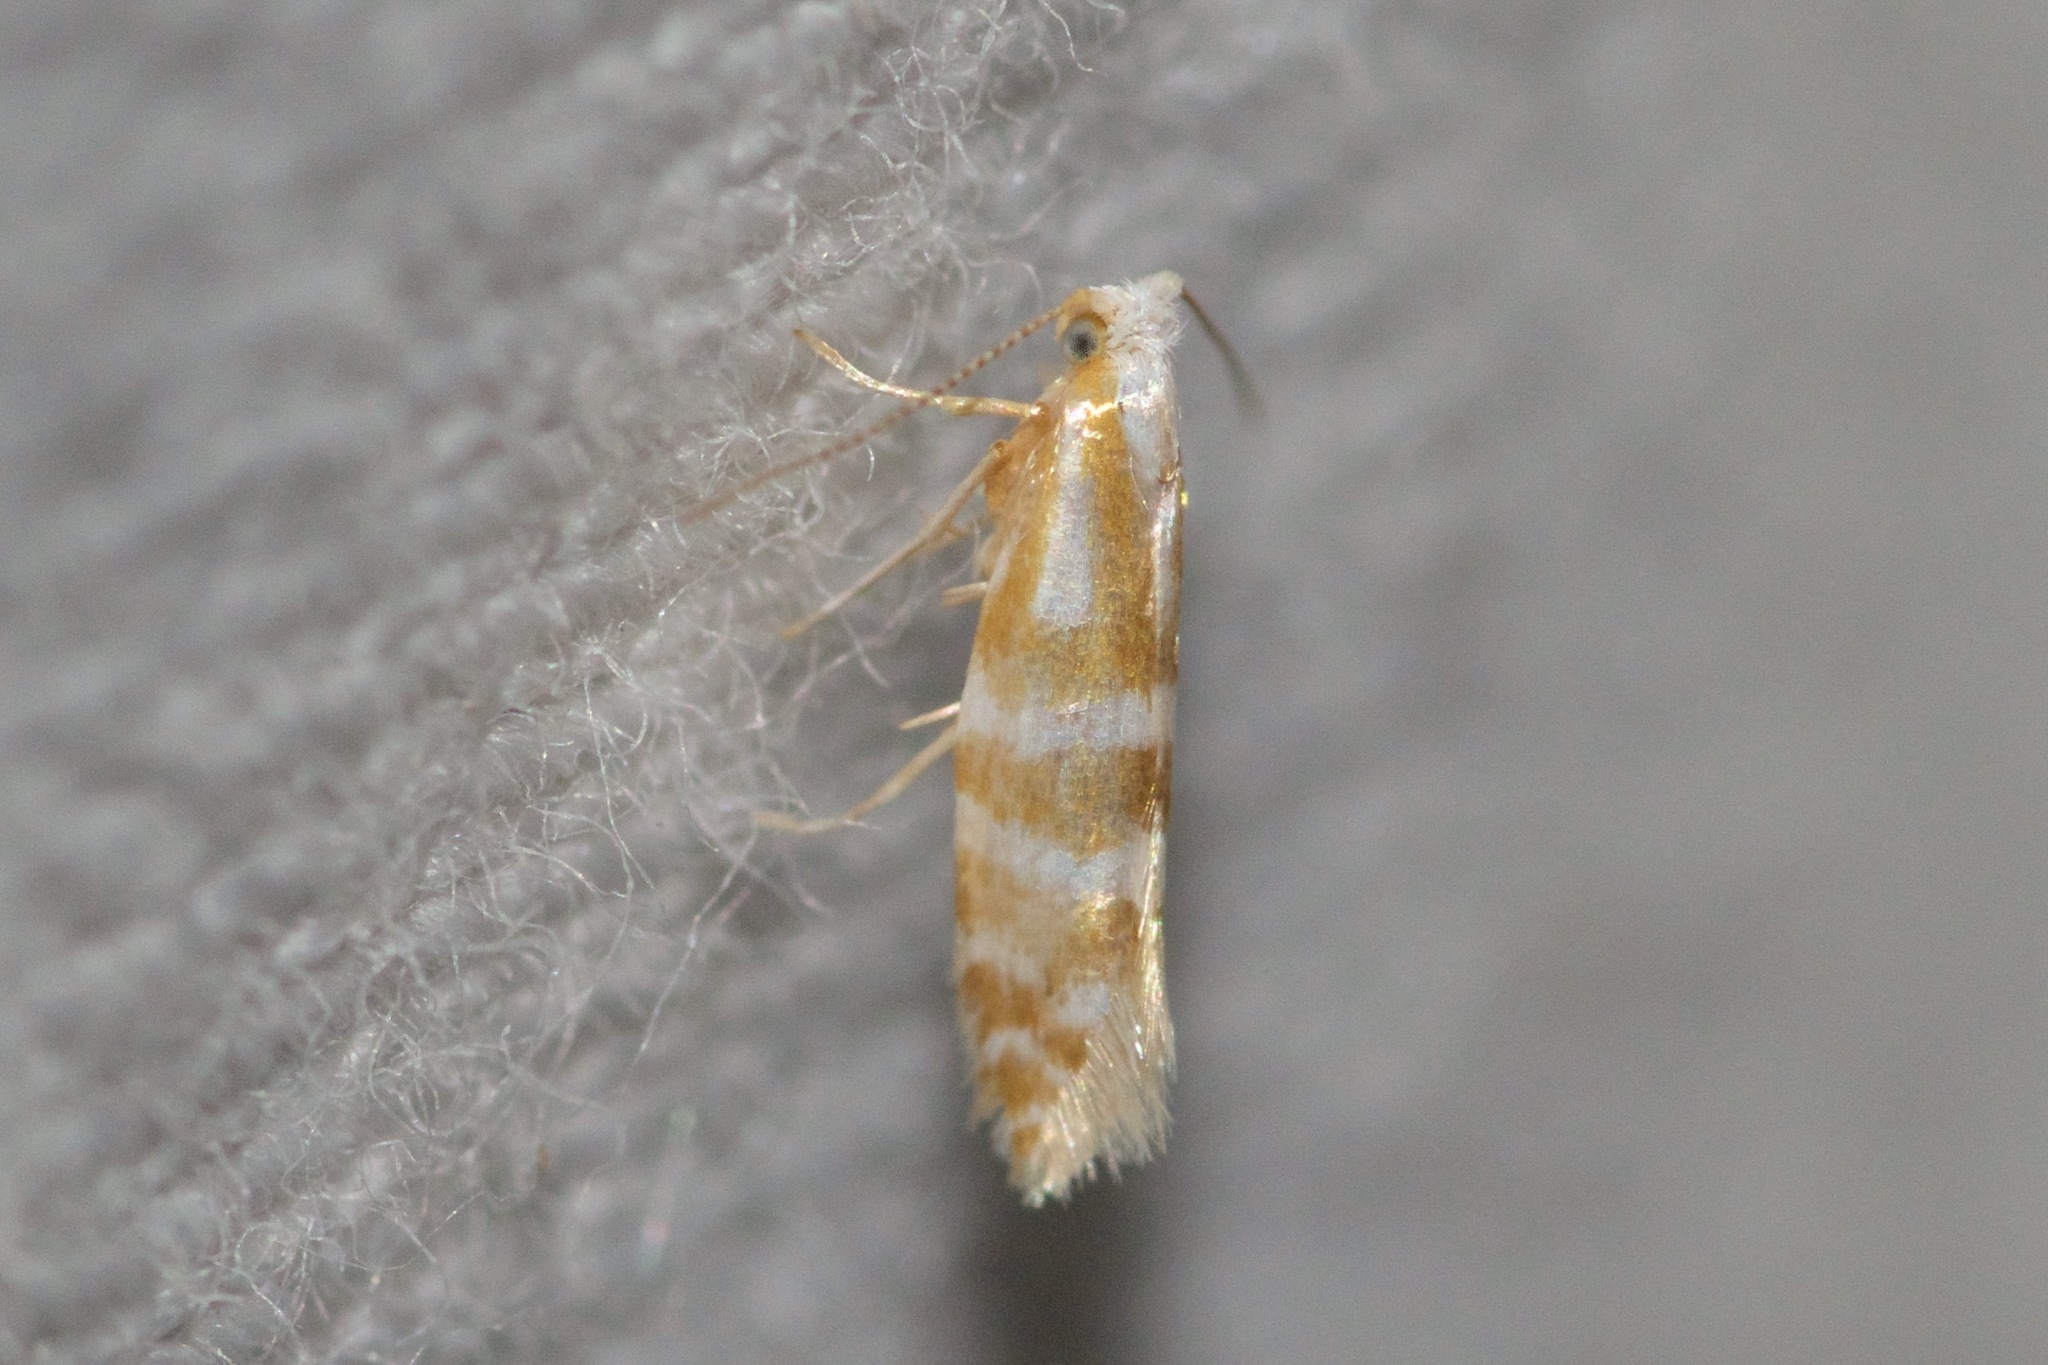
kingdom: Animalia
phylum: Arthropoda
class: Insecta
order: Lepidoptera
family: Argyresthiidae
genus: Argyresthia
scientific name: Argyresthia aureoargentella
